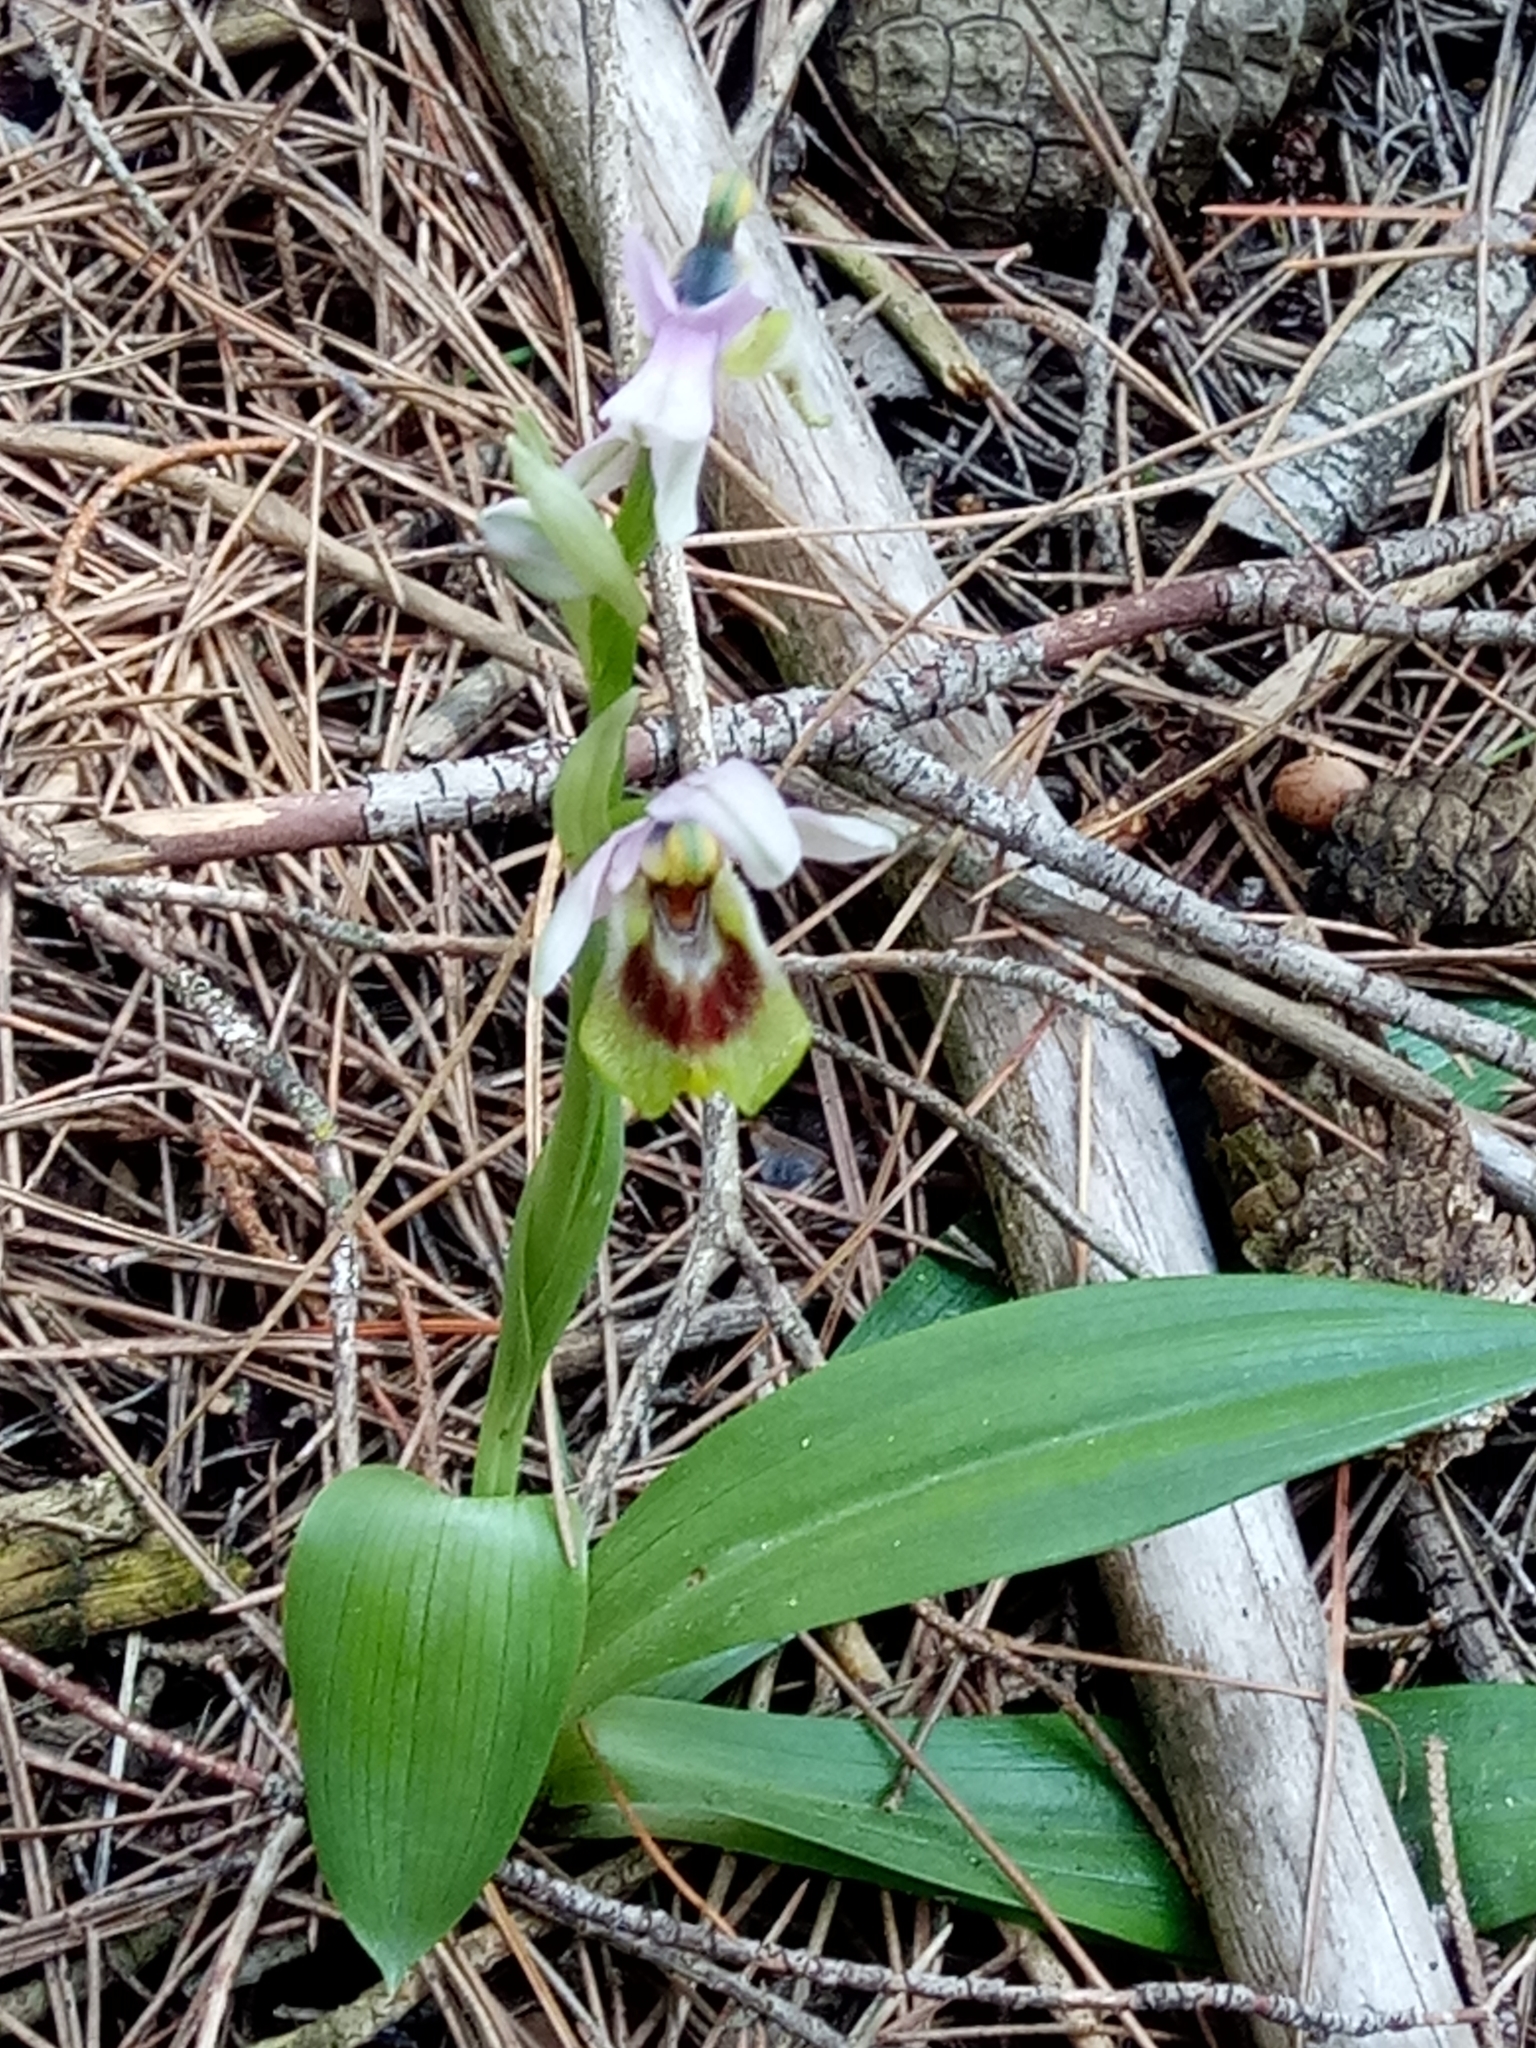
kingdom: Plantae
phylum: Tracheophyta
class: Liliopsida
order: Asparagales
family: Orchidaceae
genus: Ophrys
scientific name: Ophrys tenthredinifera
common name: Sawfly orchid
